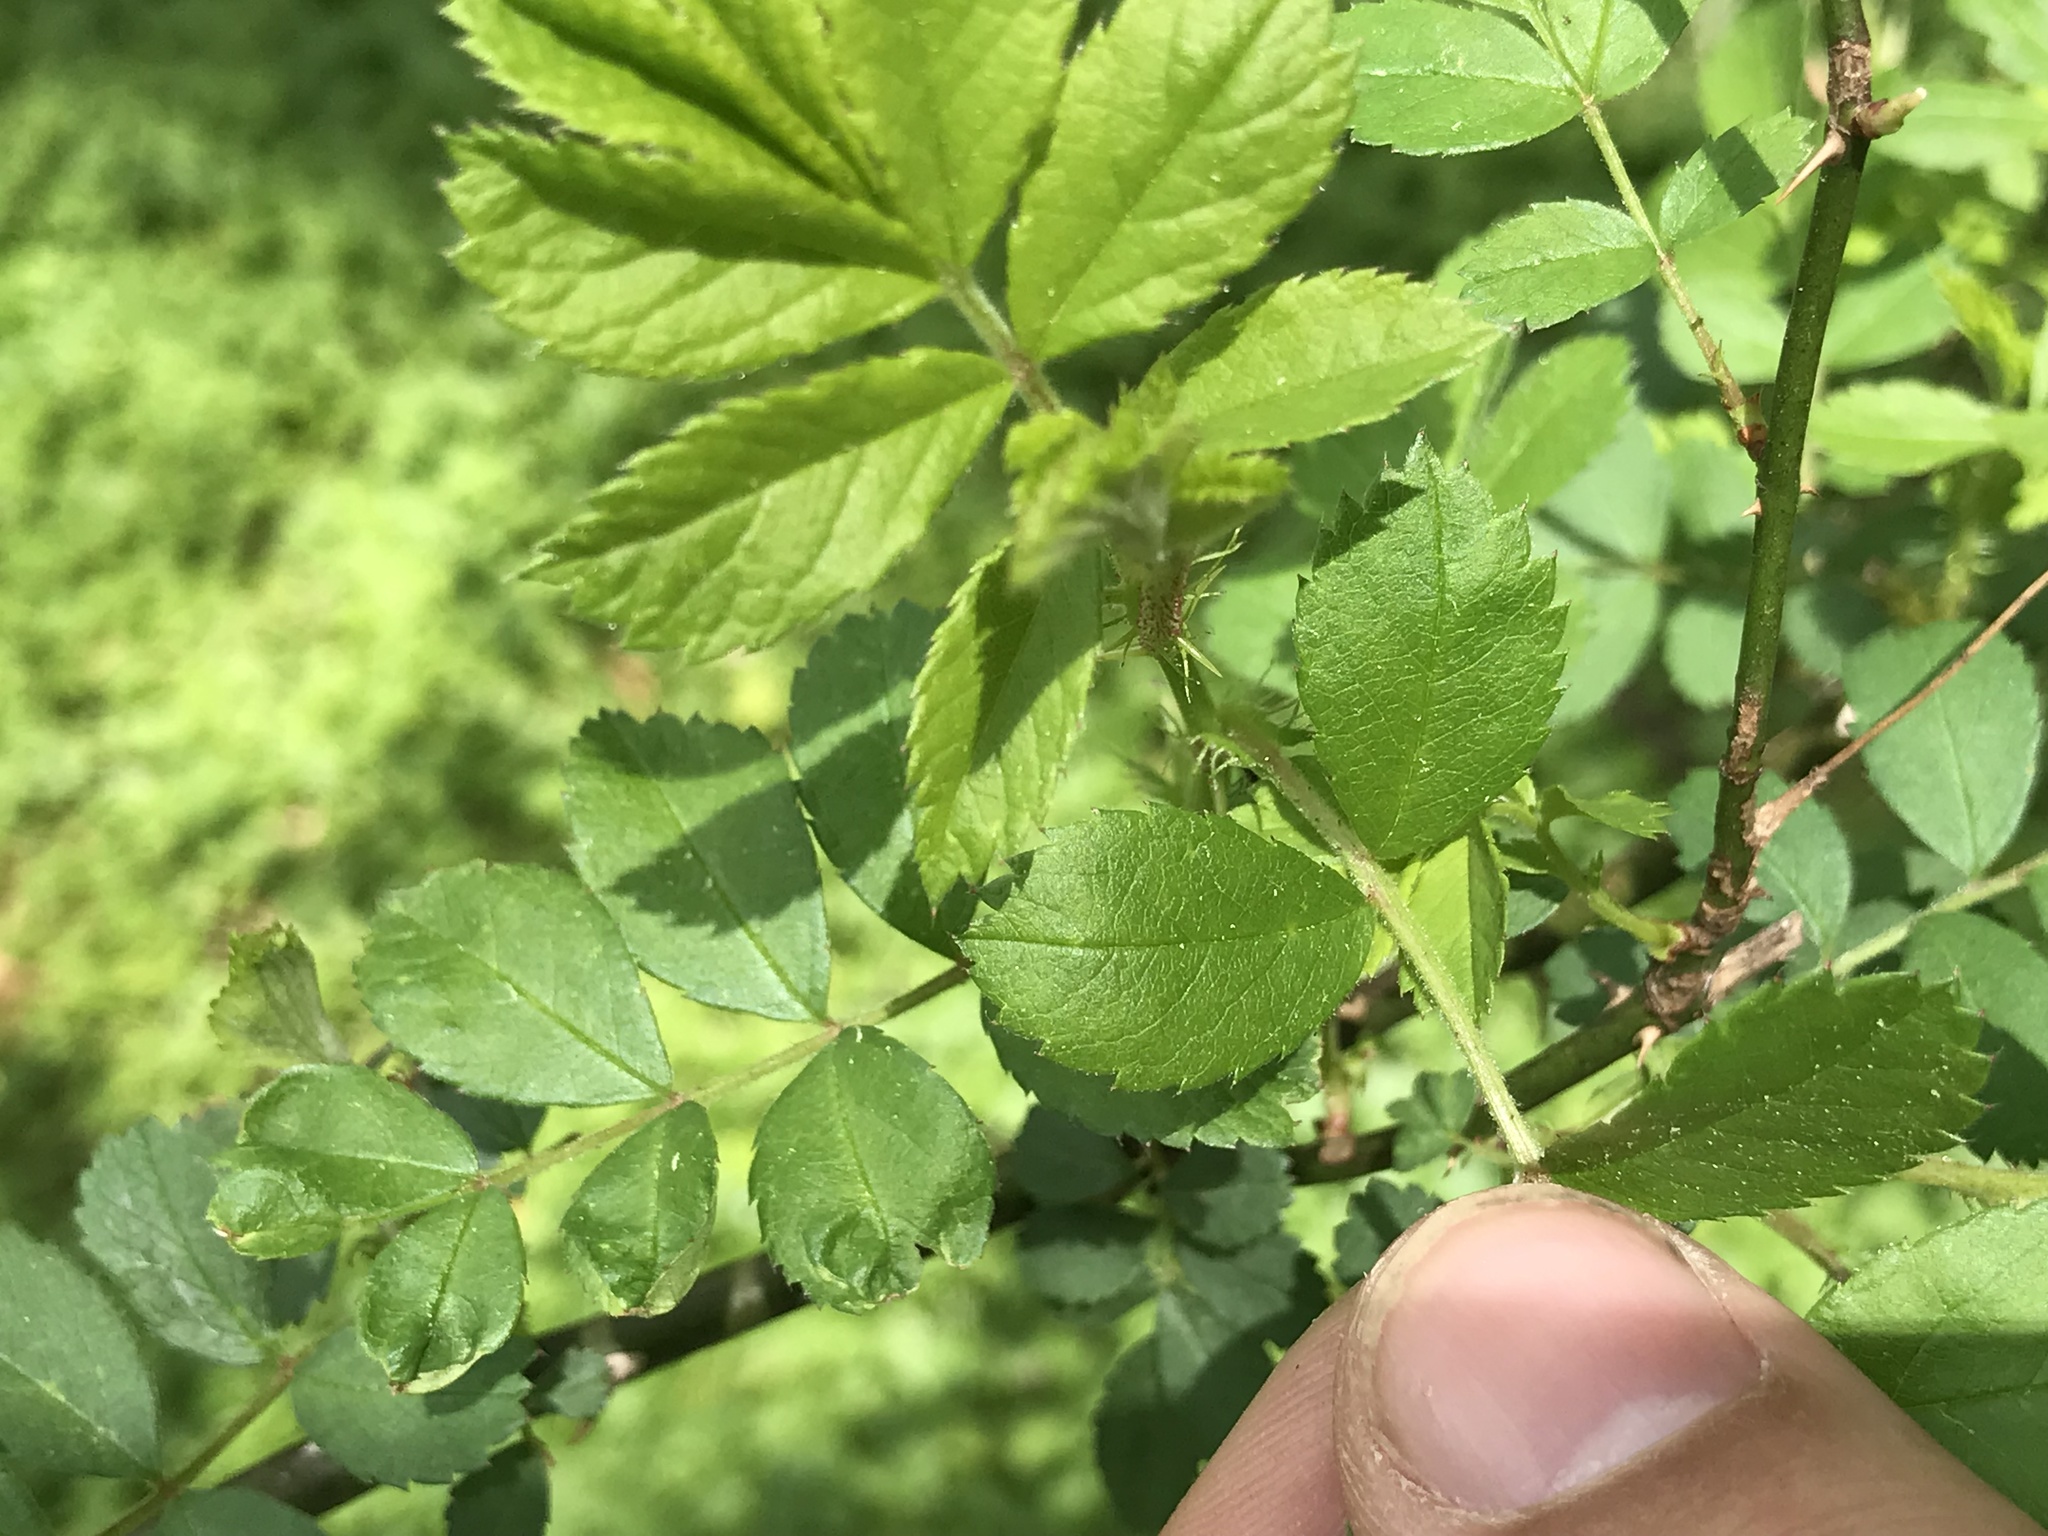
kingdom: Plantae
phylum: Tracheophyta
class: Magnoliopsida
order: Rosales
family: Rosaceae
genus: Rosa
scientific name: Rosa multiflora
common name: Multiflora rose
